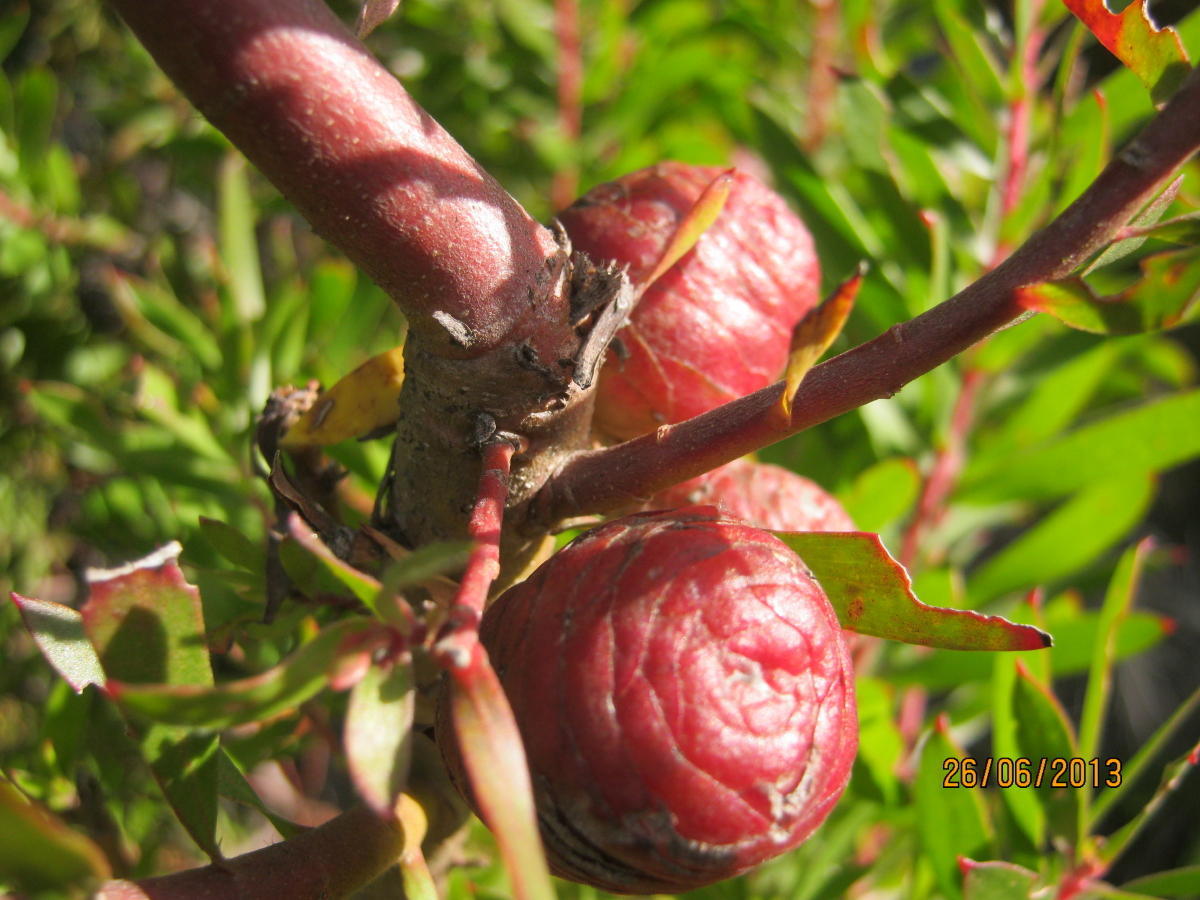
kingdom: Plantae
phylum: Tracheophyta
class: Magnoliopsida
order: Proteales
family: Proteaceae
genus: Leucadendron
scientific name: Leucadendron conicum
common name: Garden route conebush
